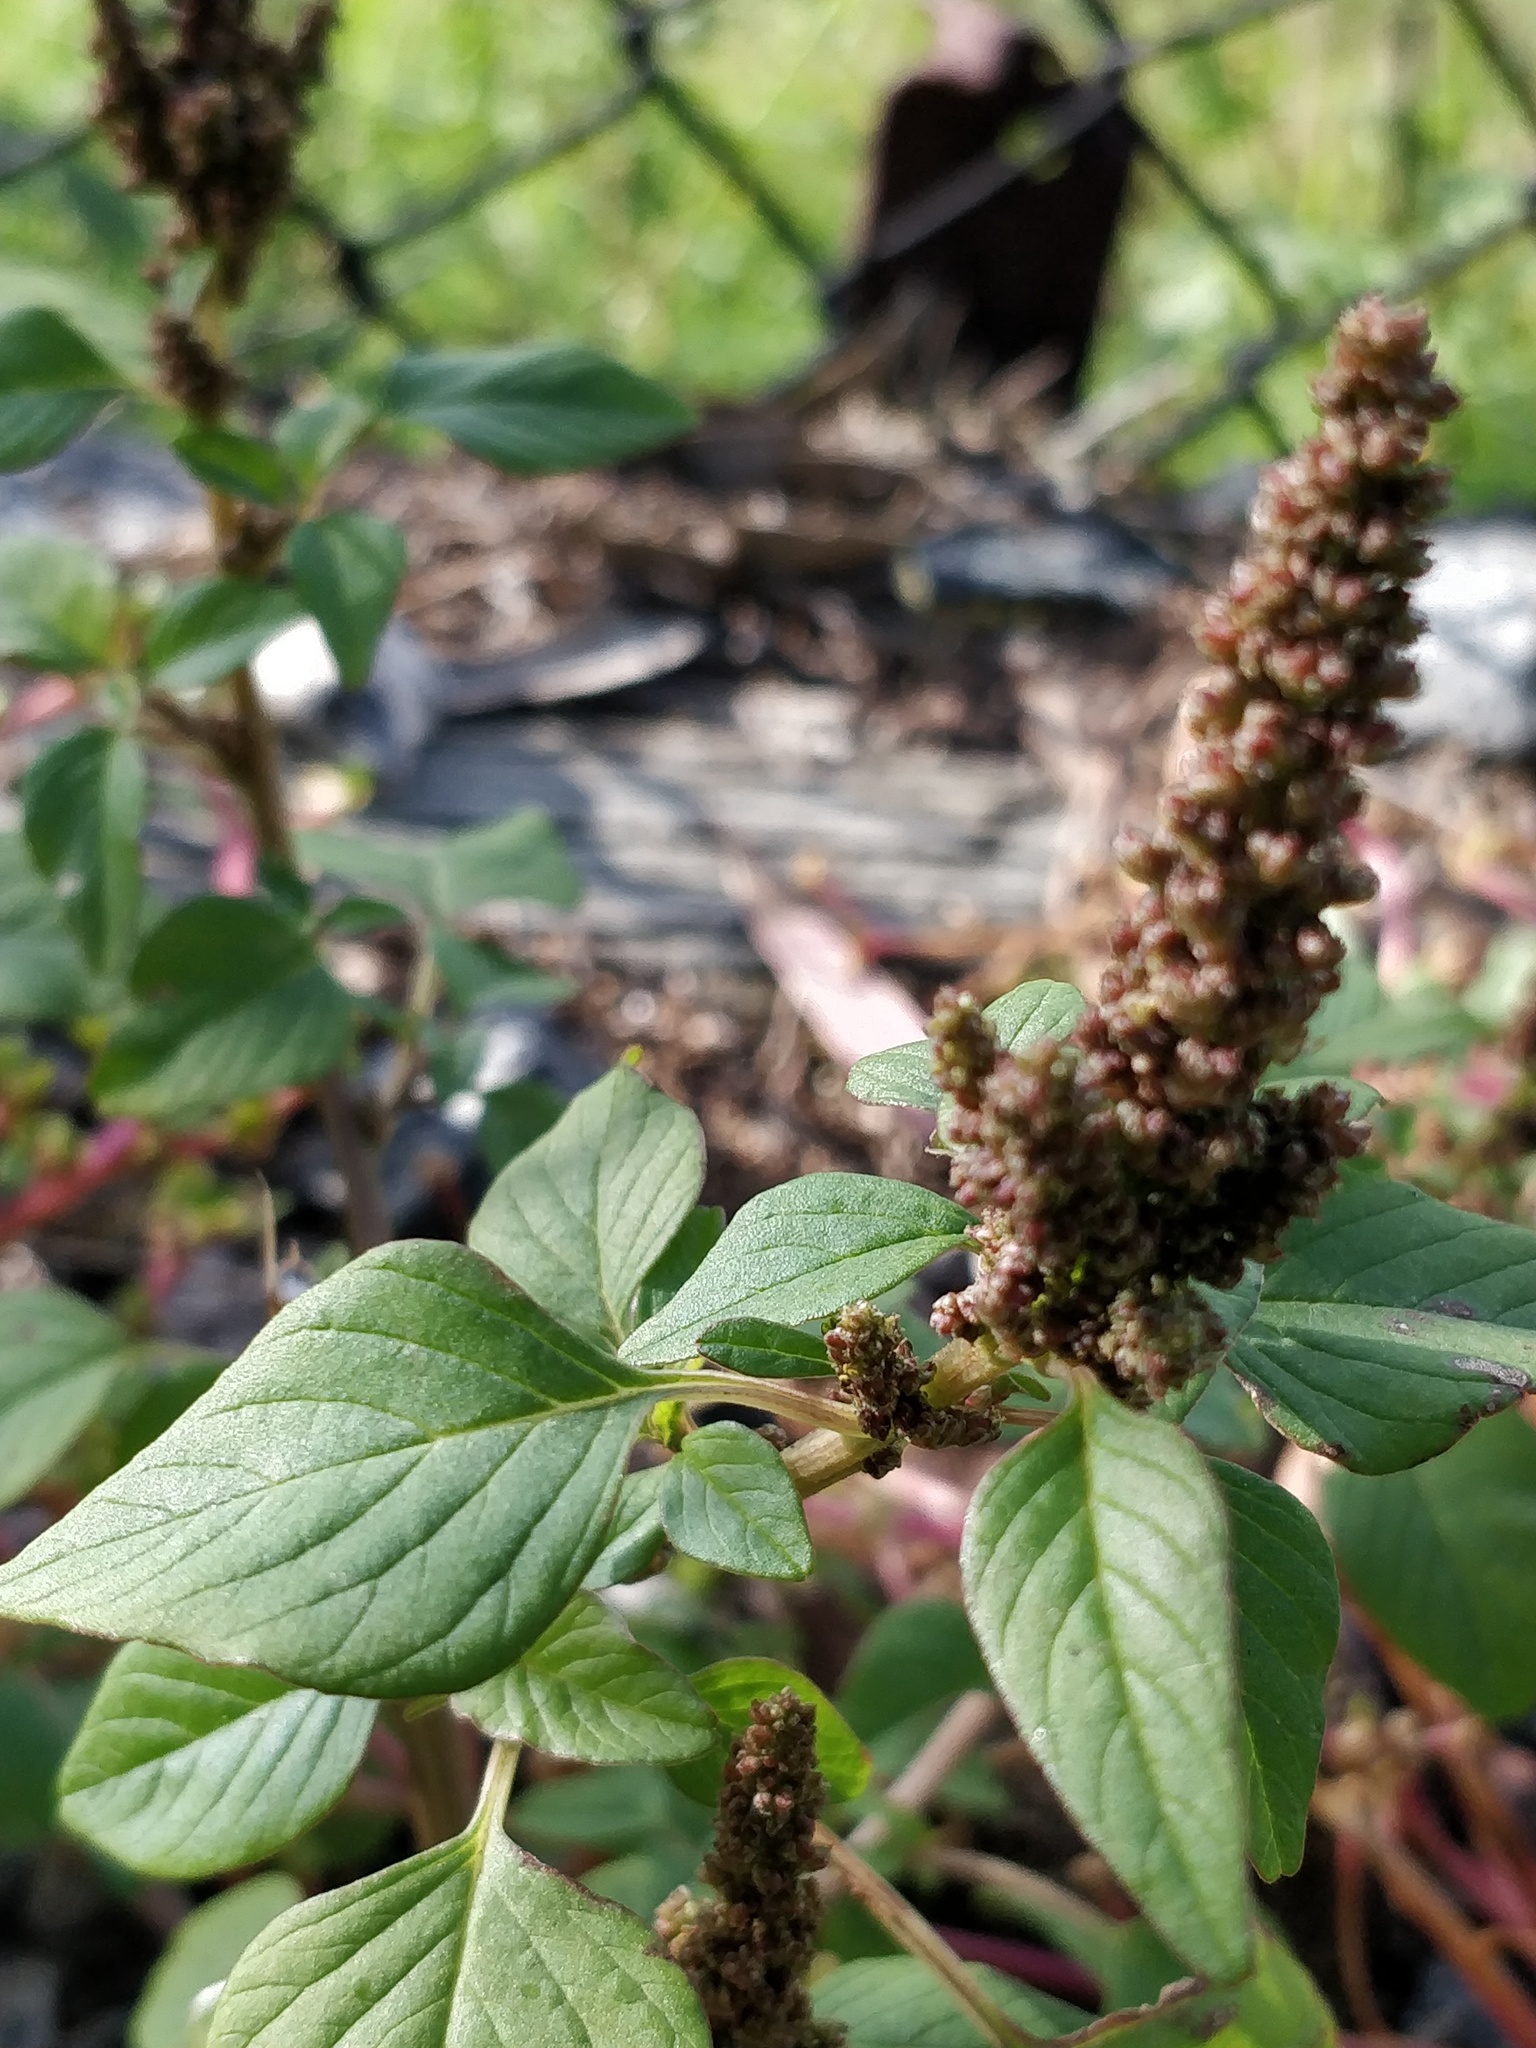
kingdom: Plantae
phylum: Tracheophyta
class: Magnoliopsida
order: Caryophyllales
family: Amaranthaceae
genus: Amaranthus
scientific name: Amaranthus viridis
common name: Slender amaranth
